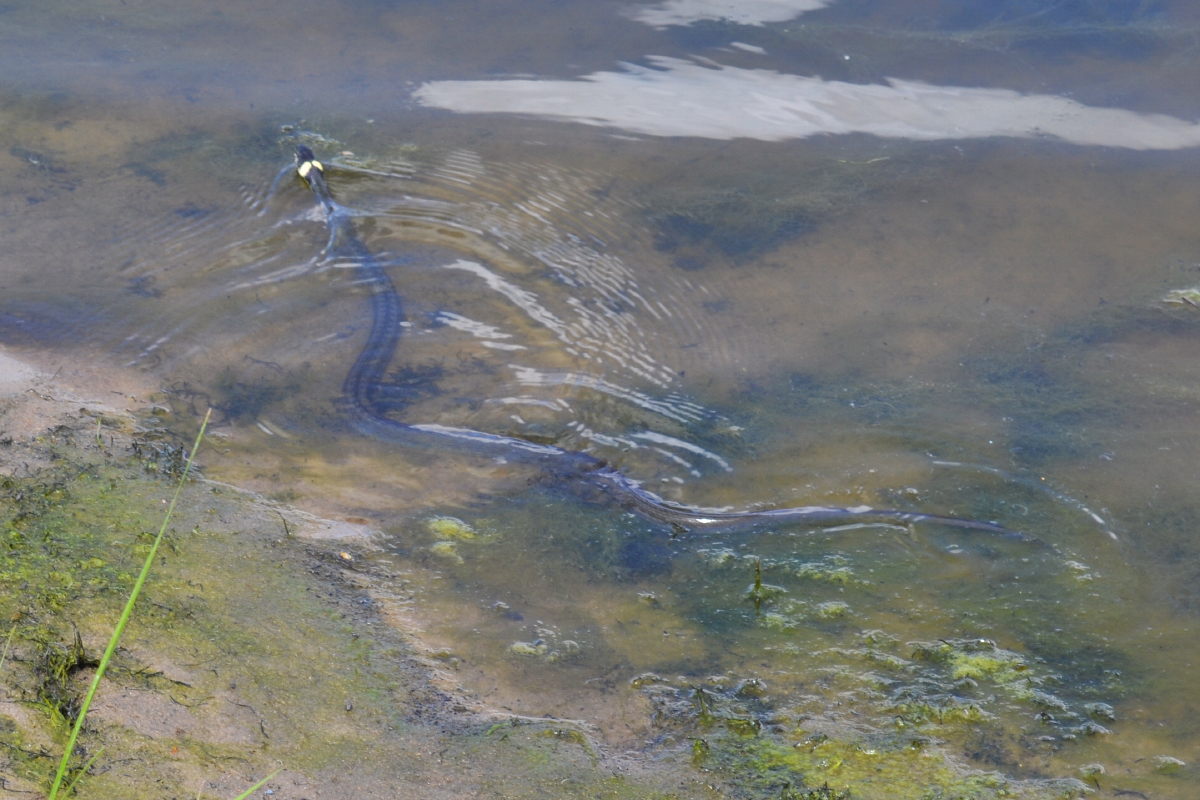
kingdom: Animalia
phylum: Chordata
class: Squamata
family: Colubridae
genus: Natrix
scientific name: Natrix natrix
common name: Grass snake
